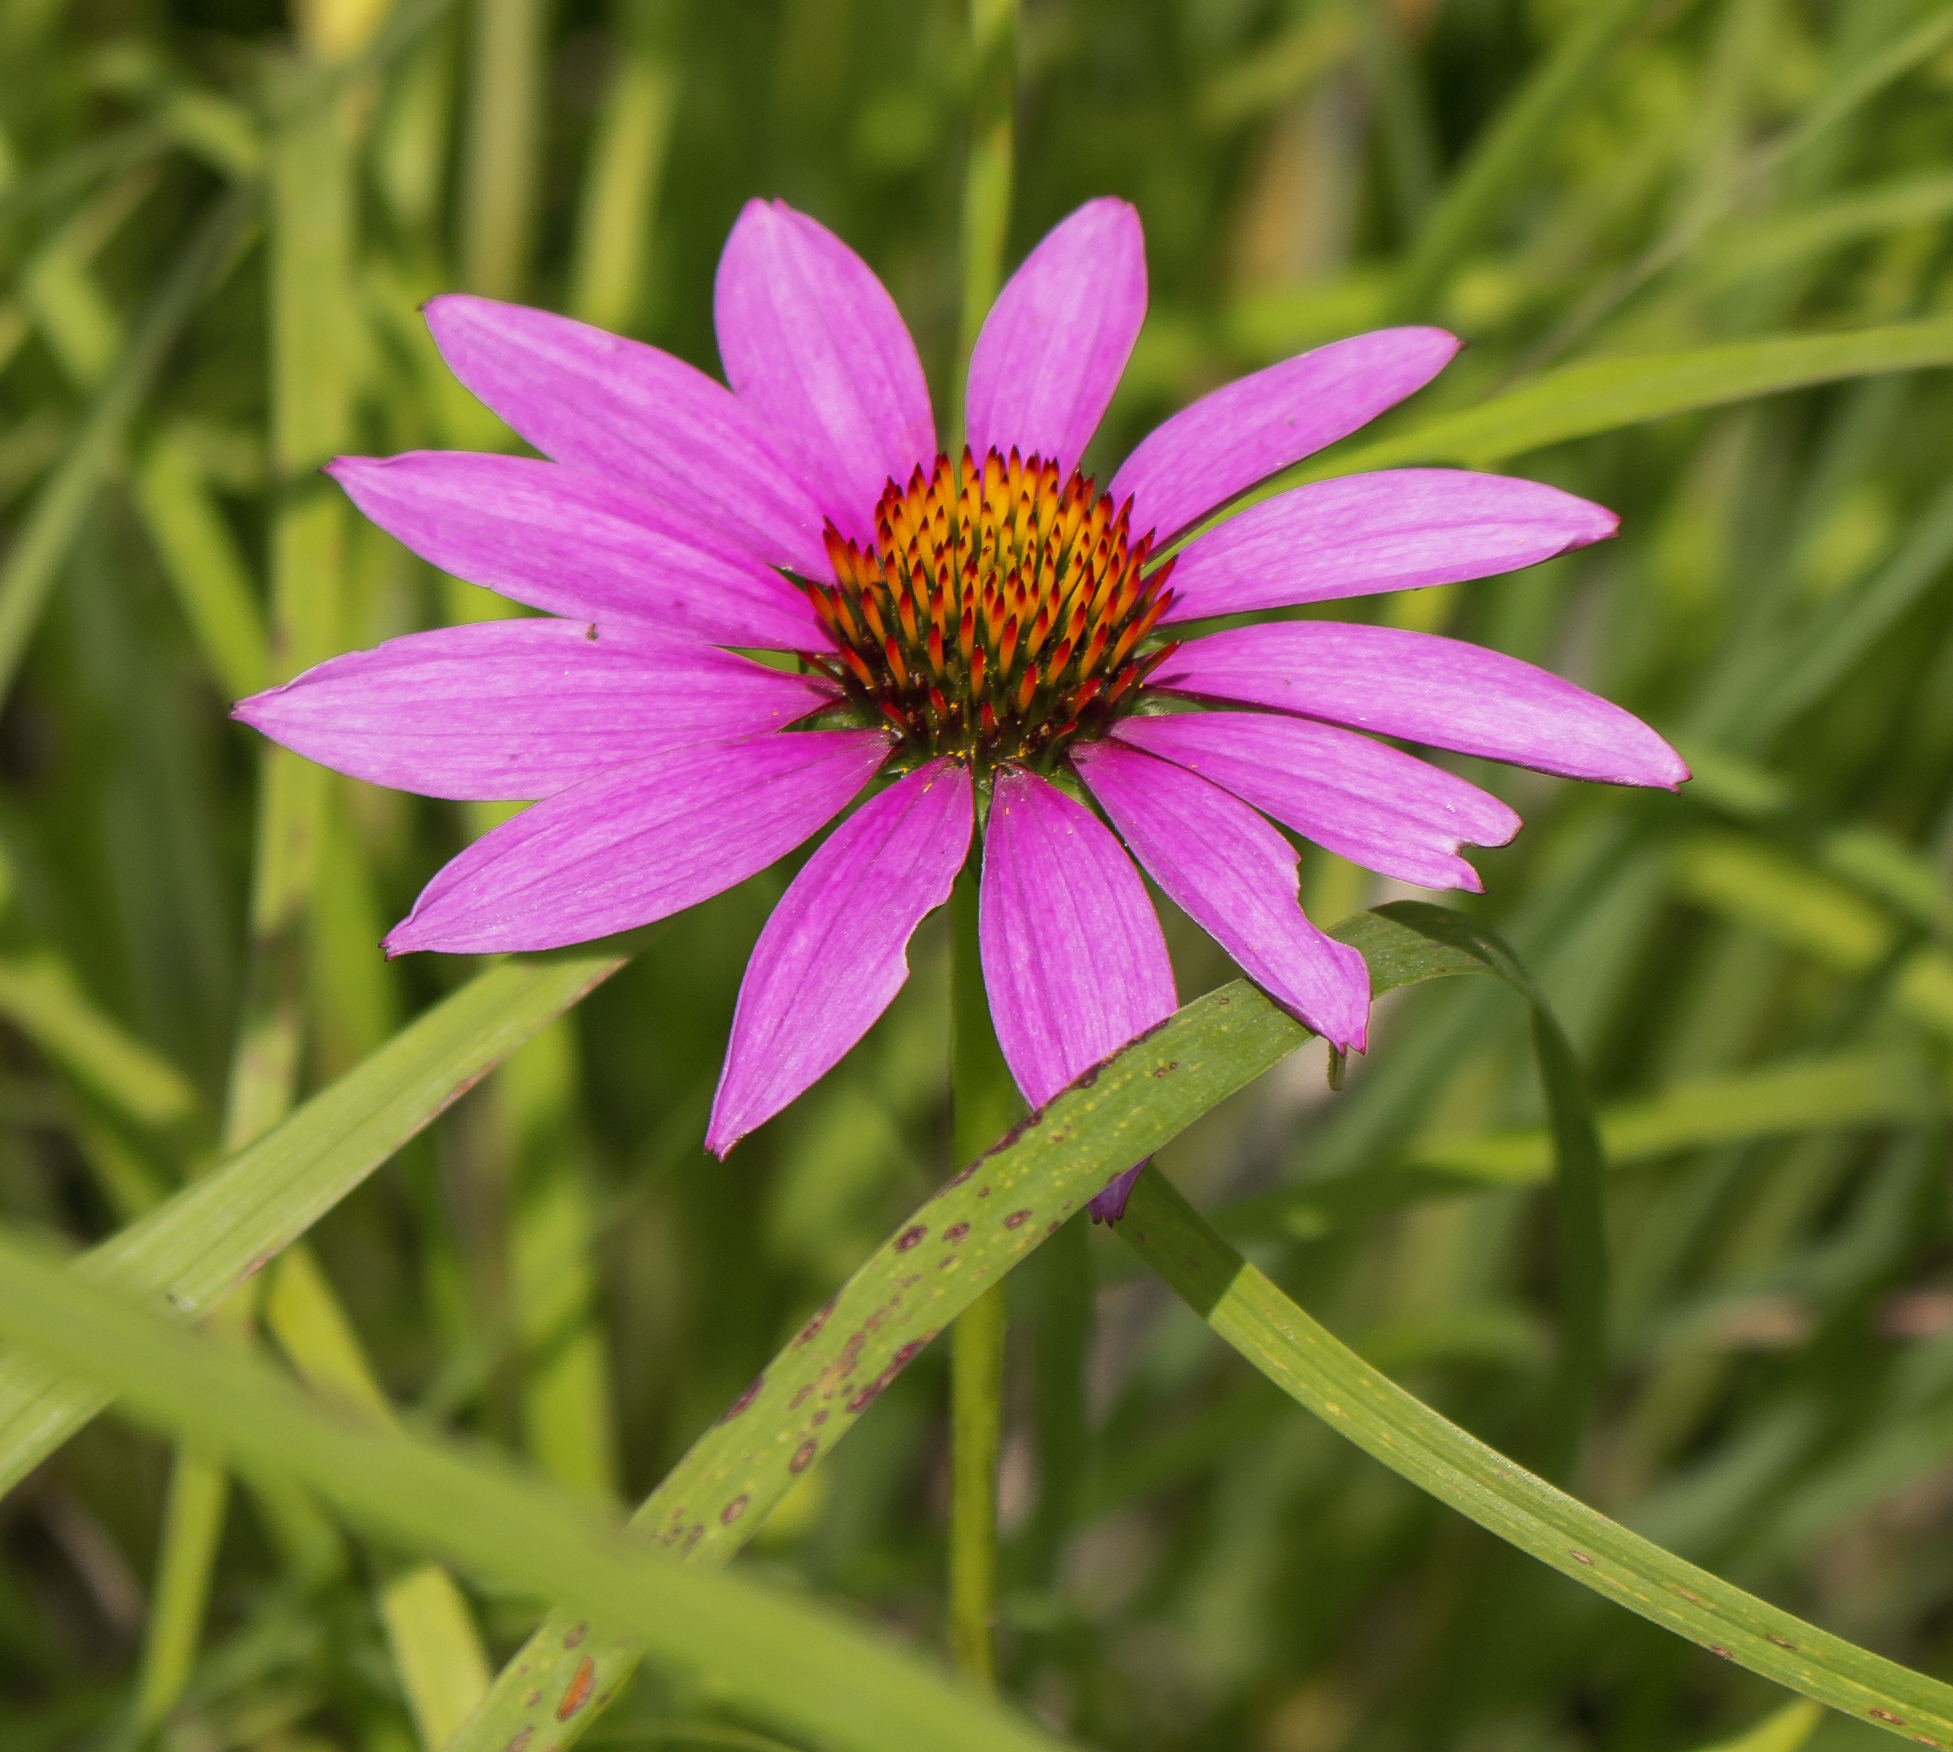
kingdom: Plantae
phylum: Tracheophyta
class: Magnoliopsida
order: Asterales
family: Asteraceae
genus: Echinacea
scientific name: Echinacea purpurea
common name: Broad-leaved purple coneflower
